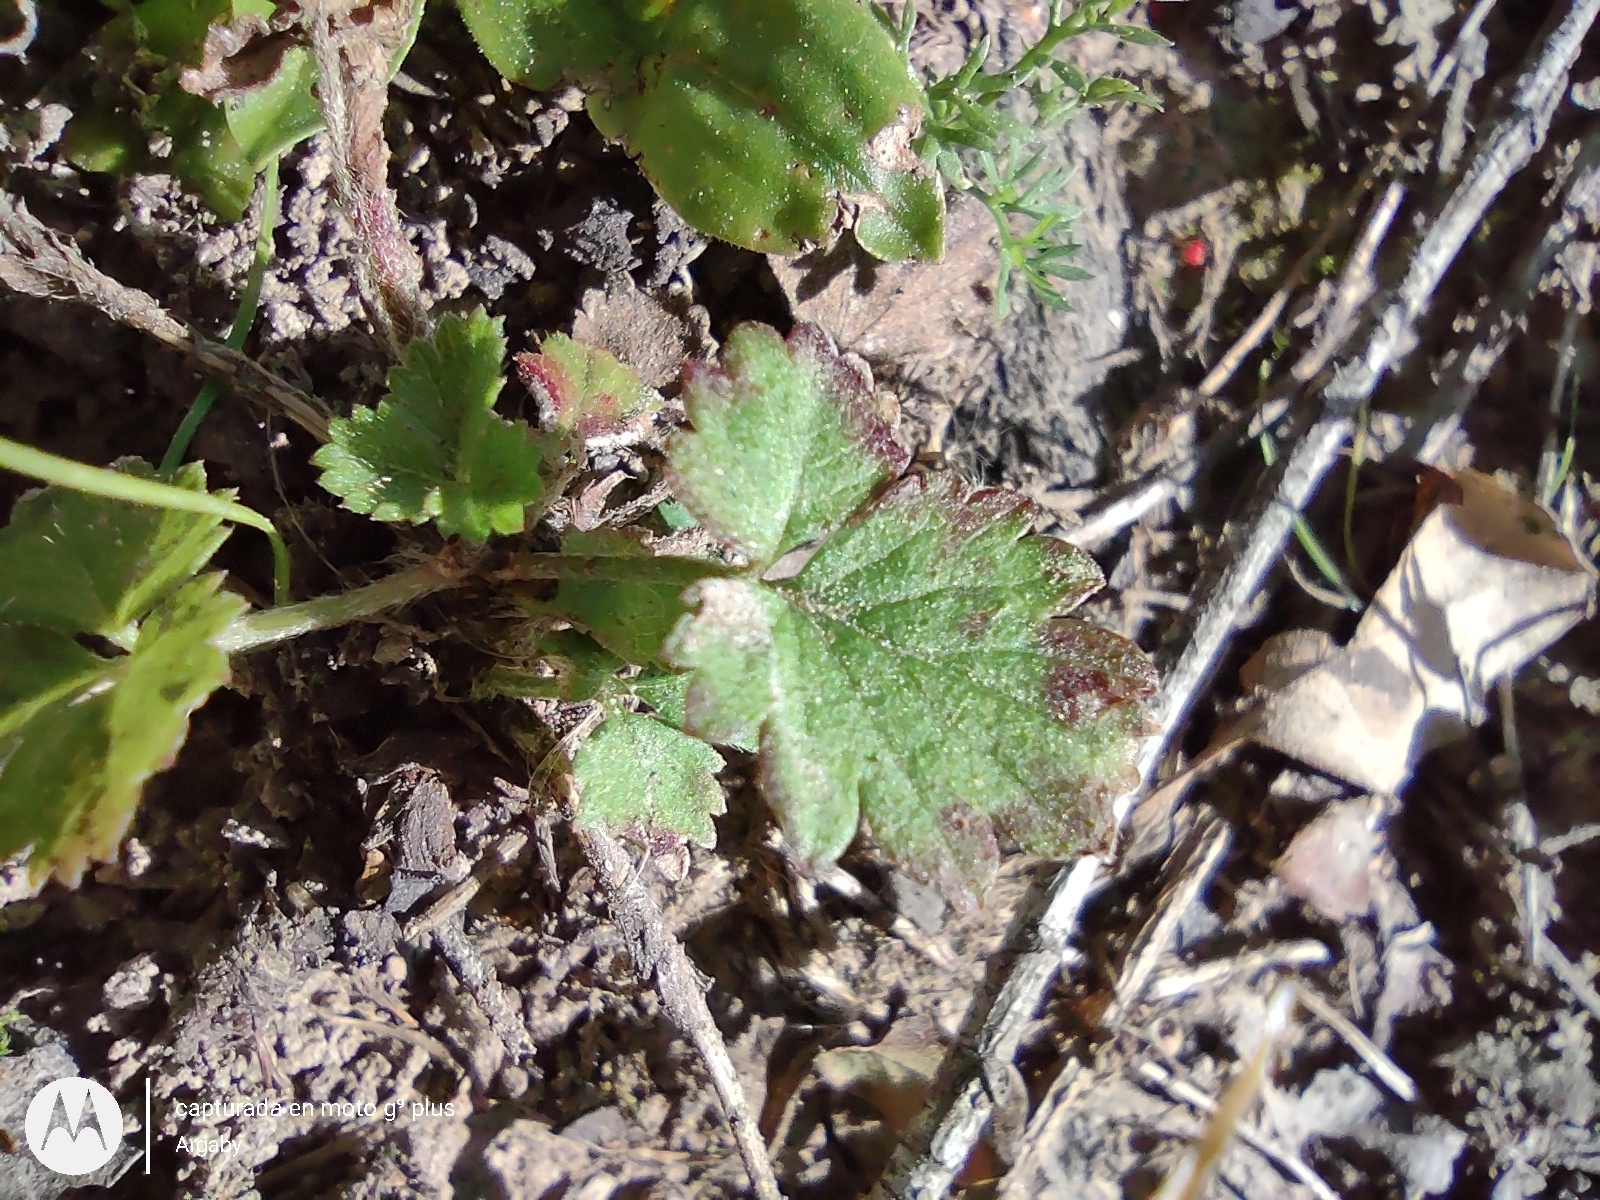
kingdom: Plantae
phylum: Tracheophyta
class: Magnoliopsida
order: Rosales
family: Rosaceae
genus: Potentilla
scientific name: Potentilla indica
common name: Yellow-flowered strawberry
